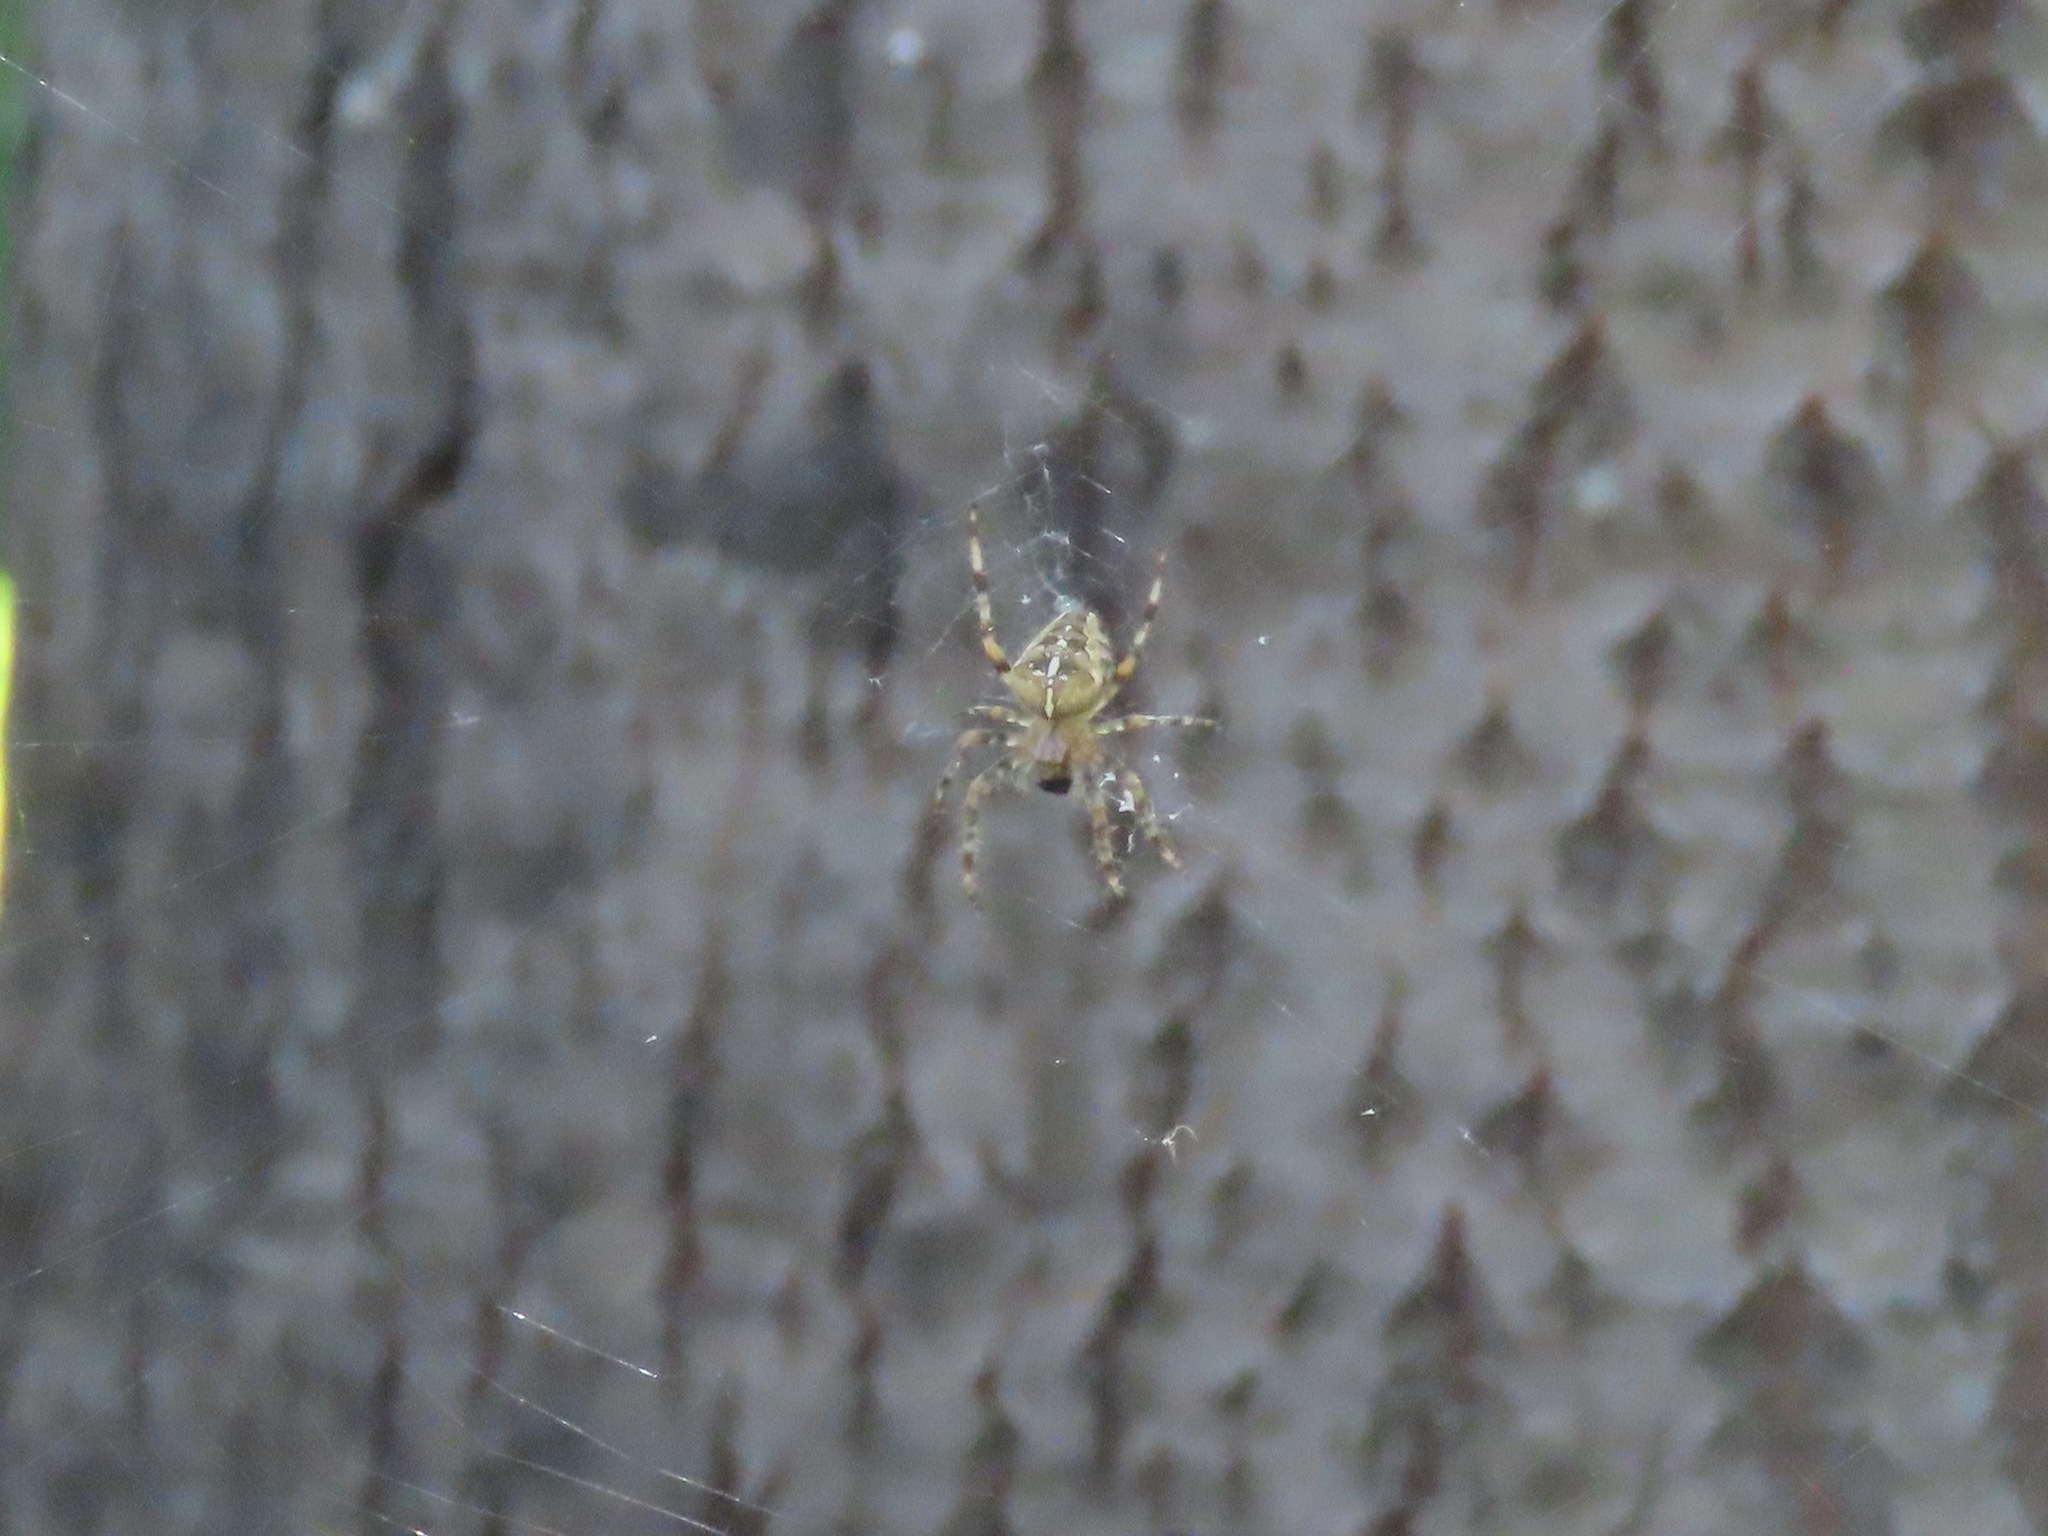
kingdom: Animalia
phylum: Arthropoda
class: Arachnida
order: Araneae
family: Araneidae
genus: Araneus
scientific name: Araneus diadematus
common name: Cross orbweaver
